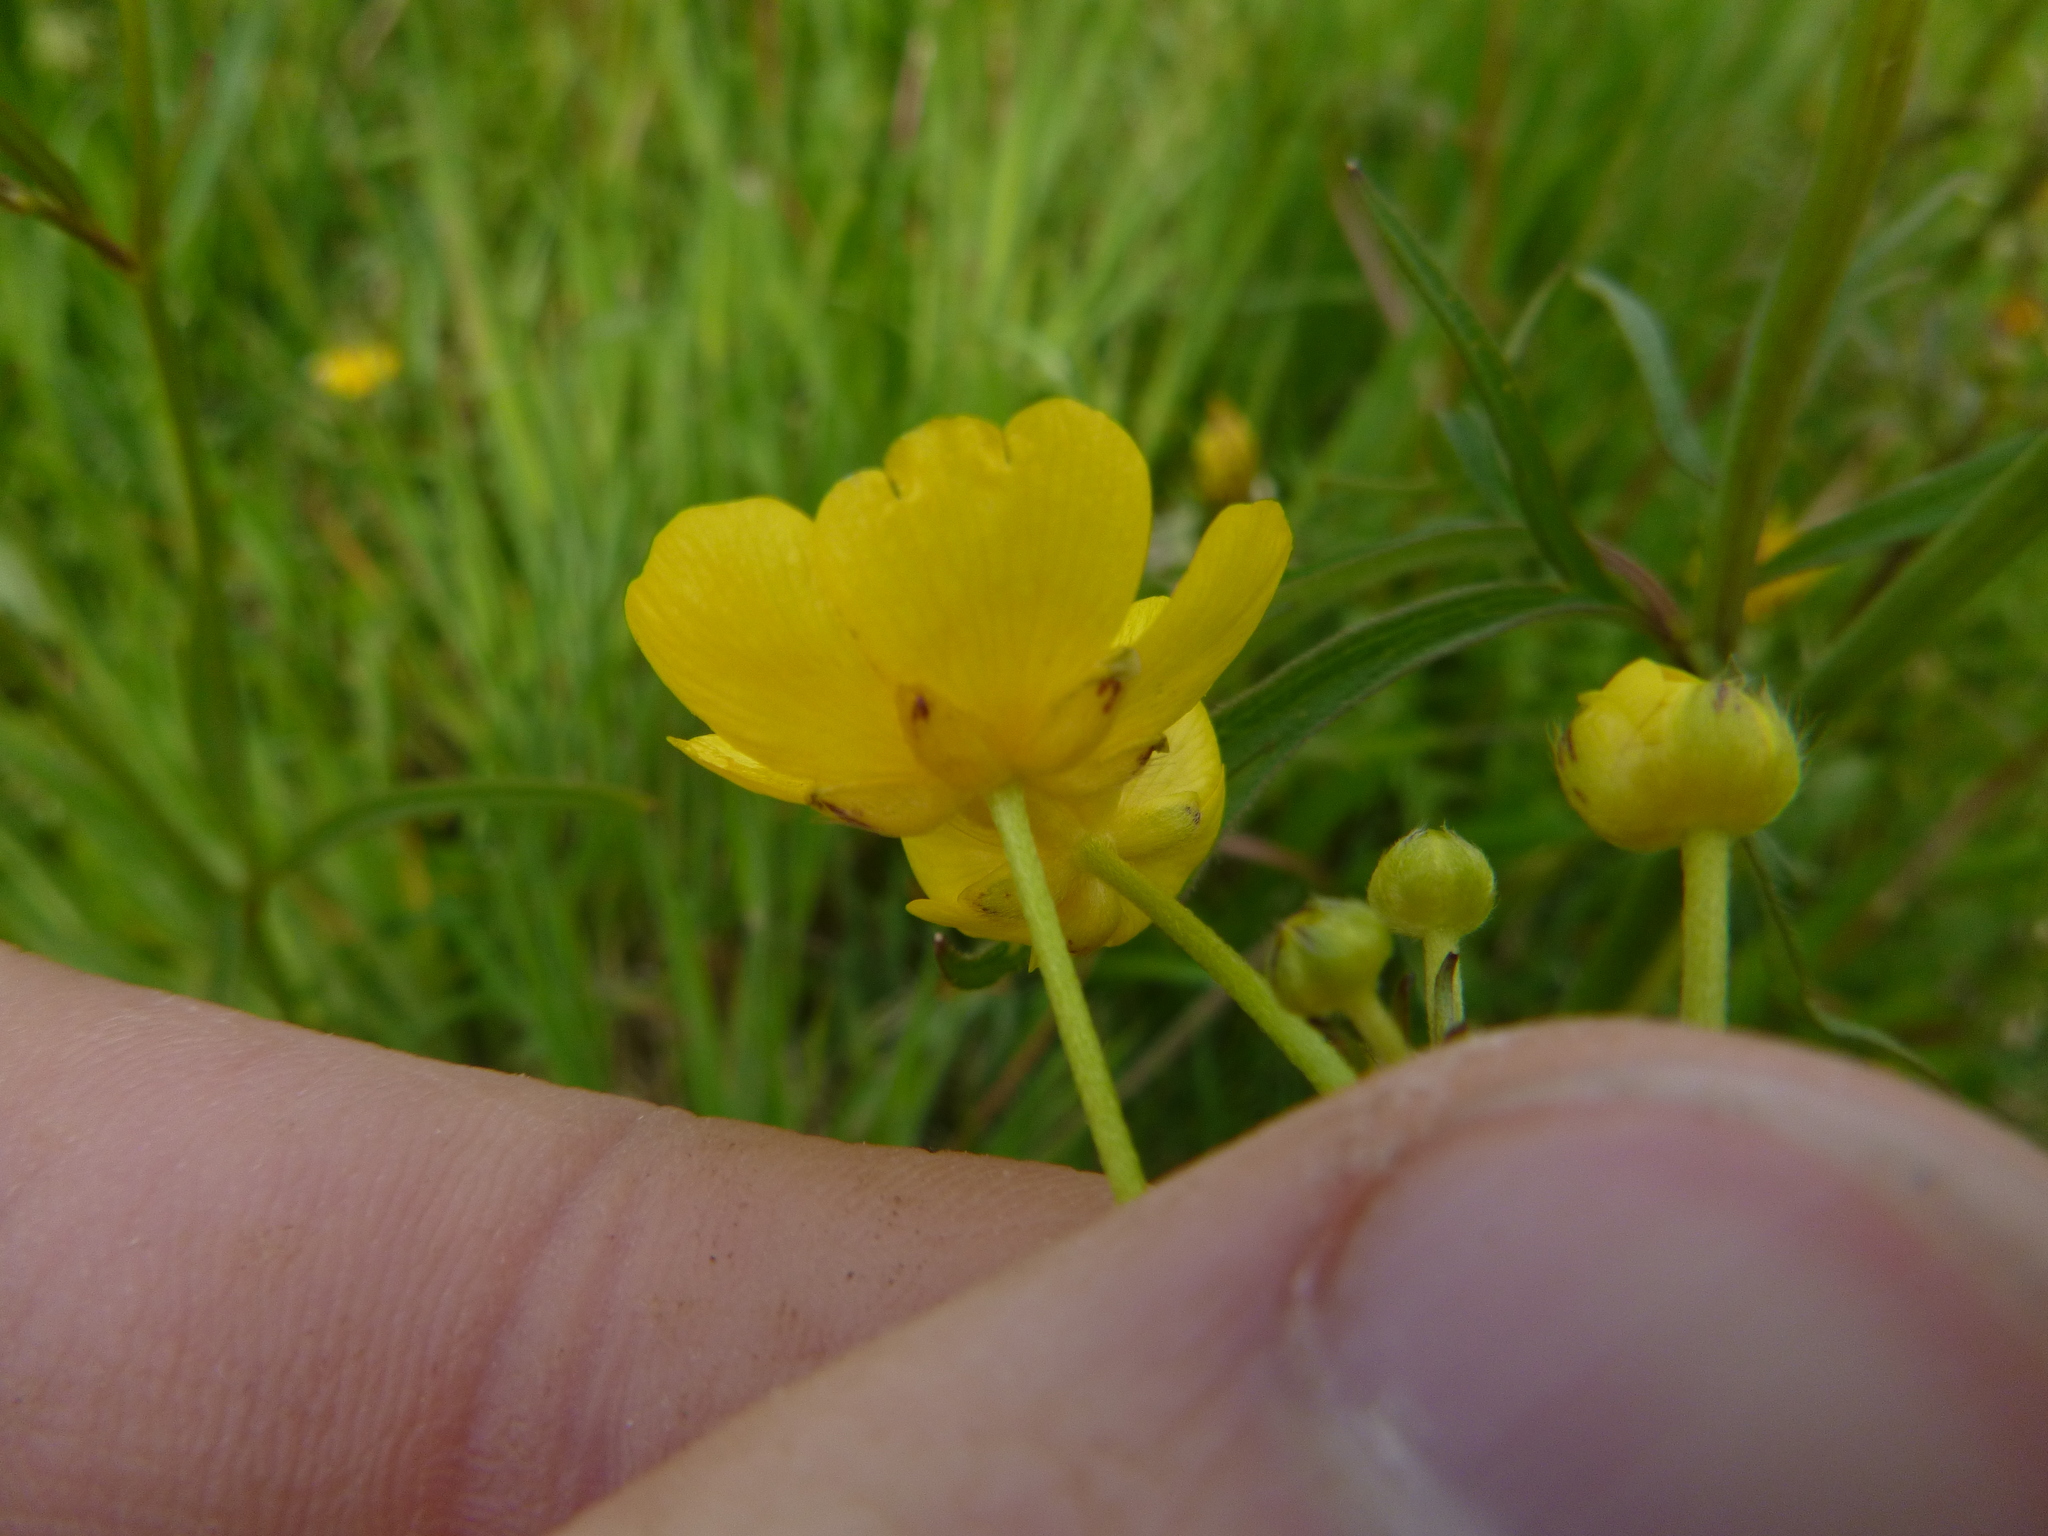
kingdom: Plantae
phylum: Tracheophyta
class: Magnoliopsida
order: Ranunculales
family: Ranunculaceae
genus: Ranunculus
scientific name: Ranunculus acris
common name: Meadow buttercup
